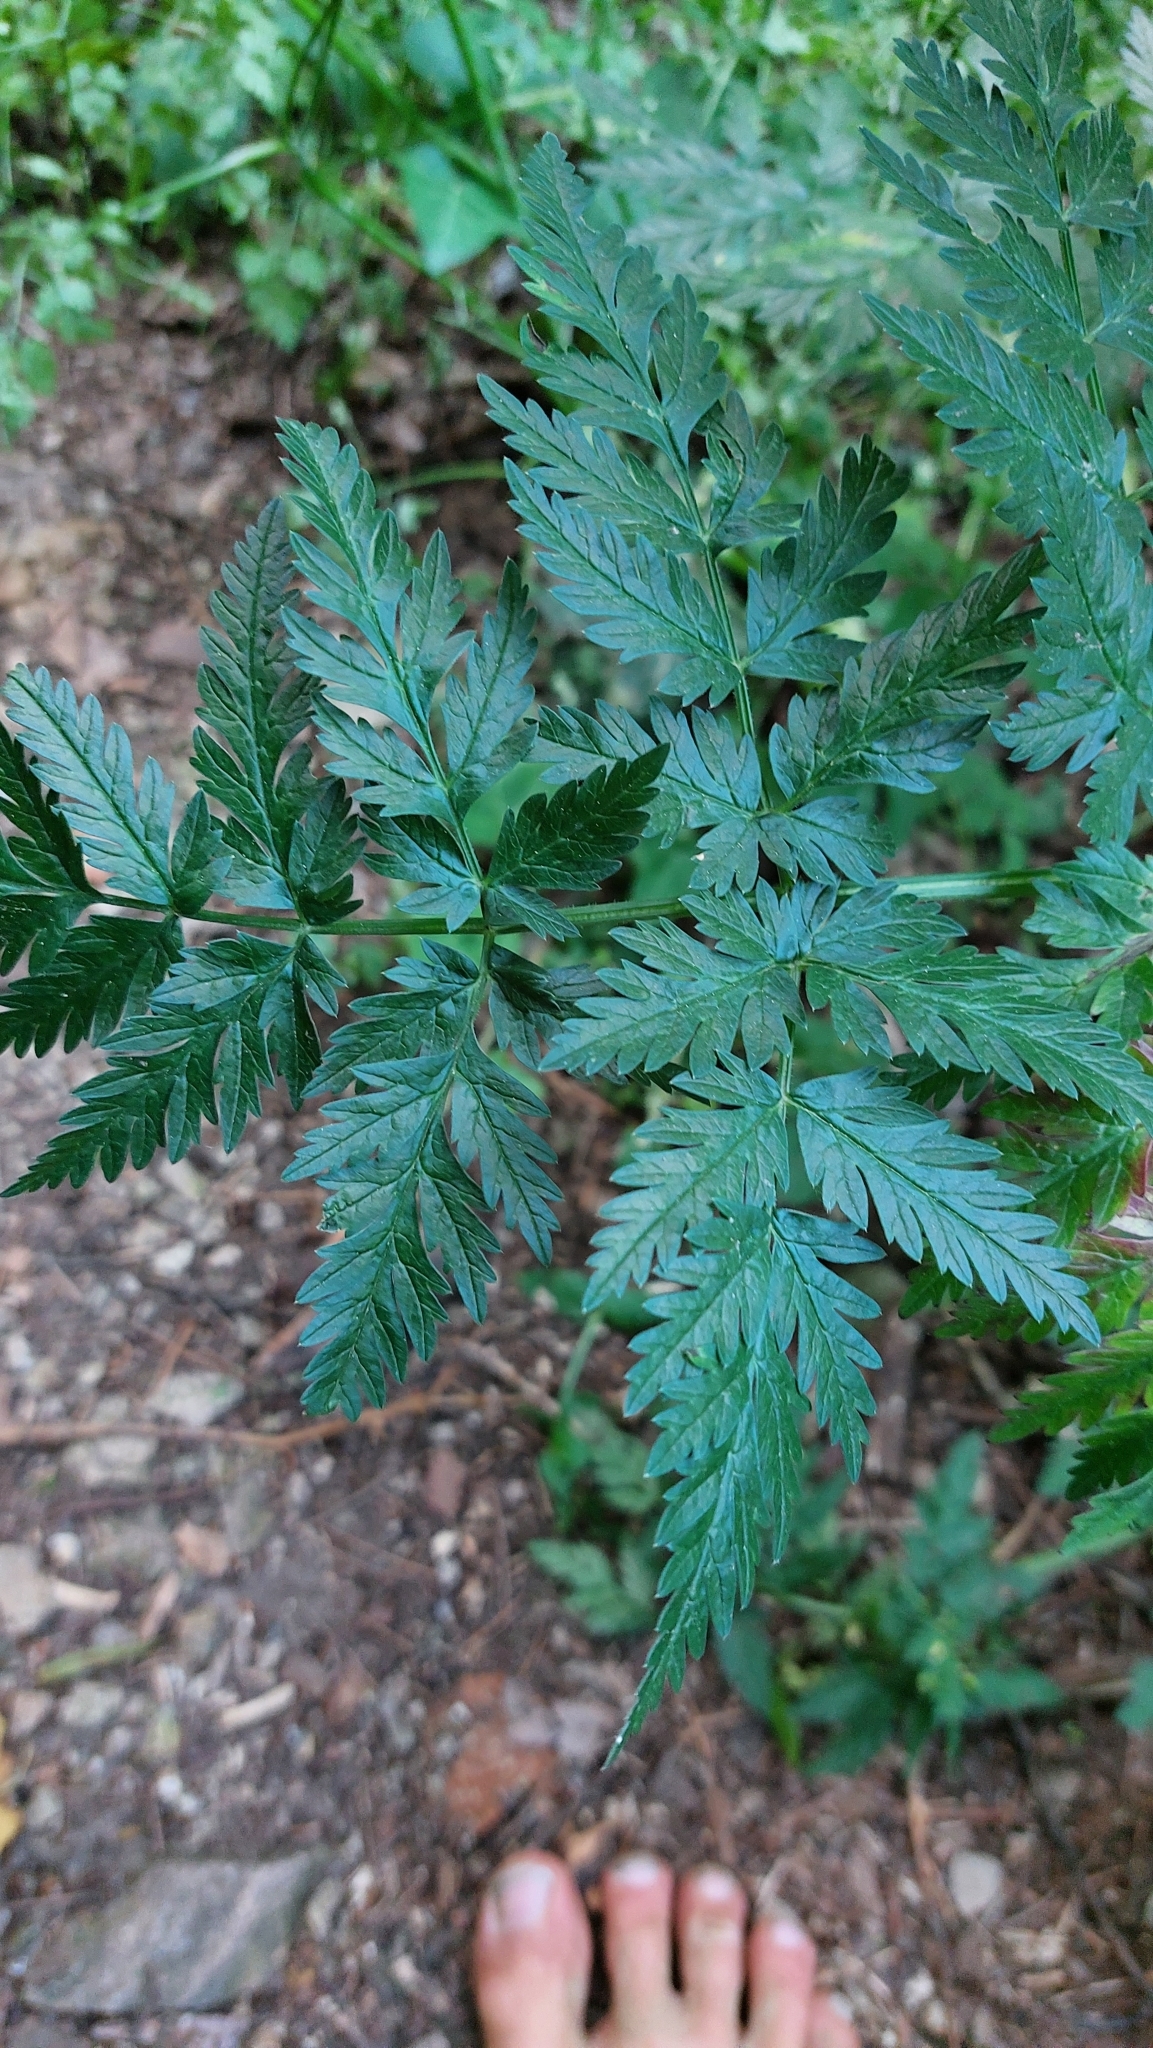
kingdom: Plantae
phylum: Tracheophyta
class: Magnoliopsida
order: Apiales
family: Apiaceae
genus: Anthriscus
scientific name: Anthriscus sylvestris
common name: Cow parsley
